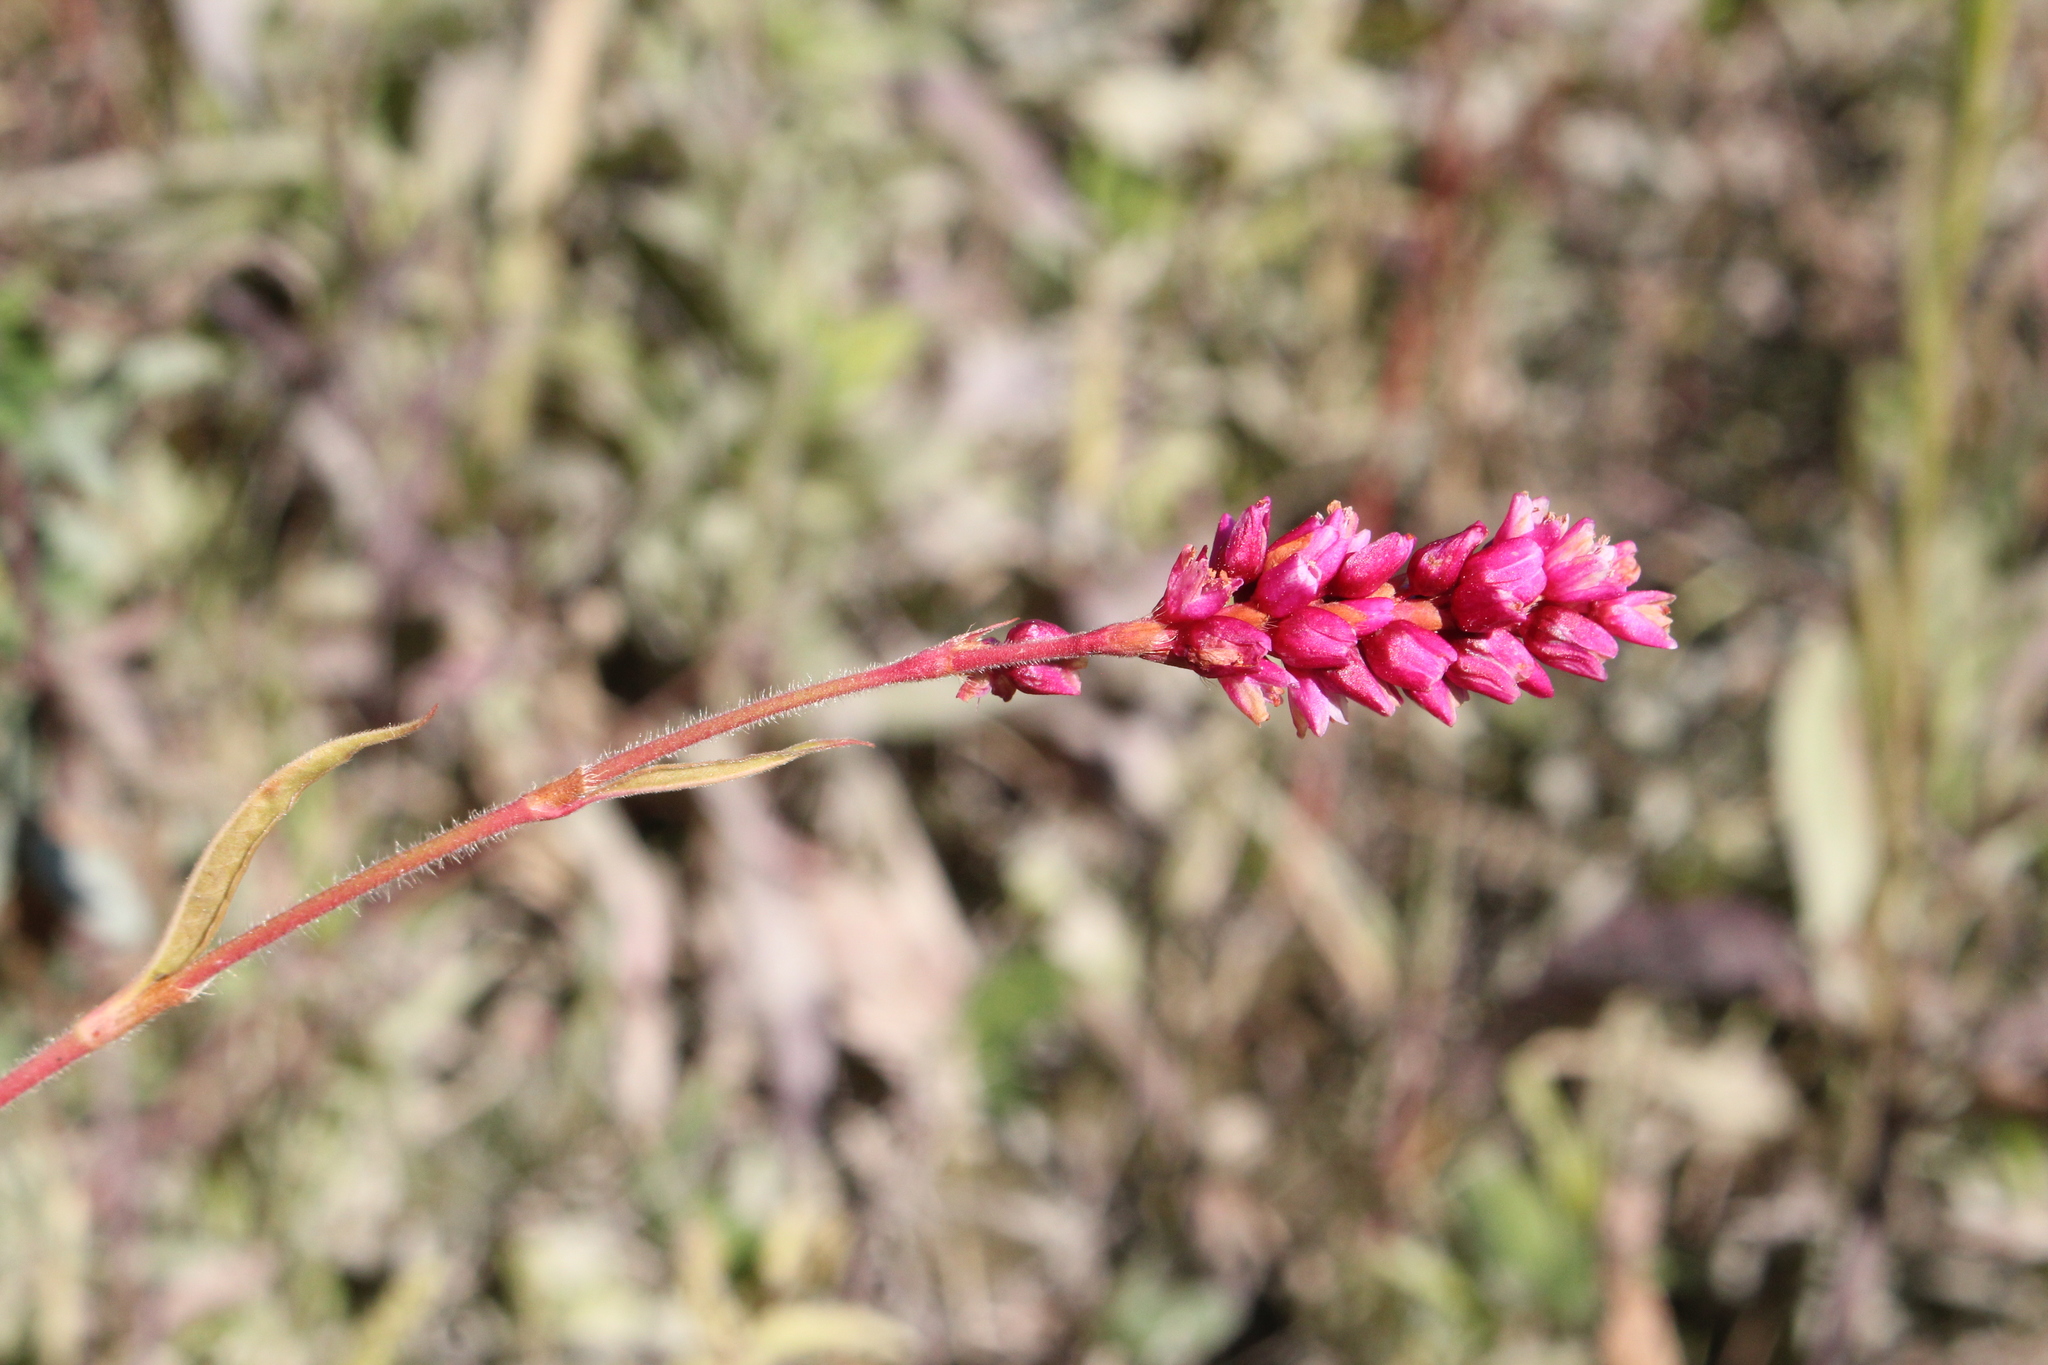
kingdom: Plantae
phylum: Tracheophyta
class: Magnoliopsida
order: Caryophyllales
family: Polygonaceae
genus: Persicaria
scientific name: Persicaria orientalis
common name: Kiss-me-over-the-garden-gate
